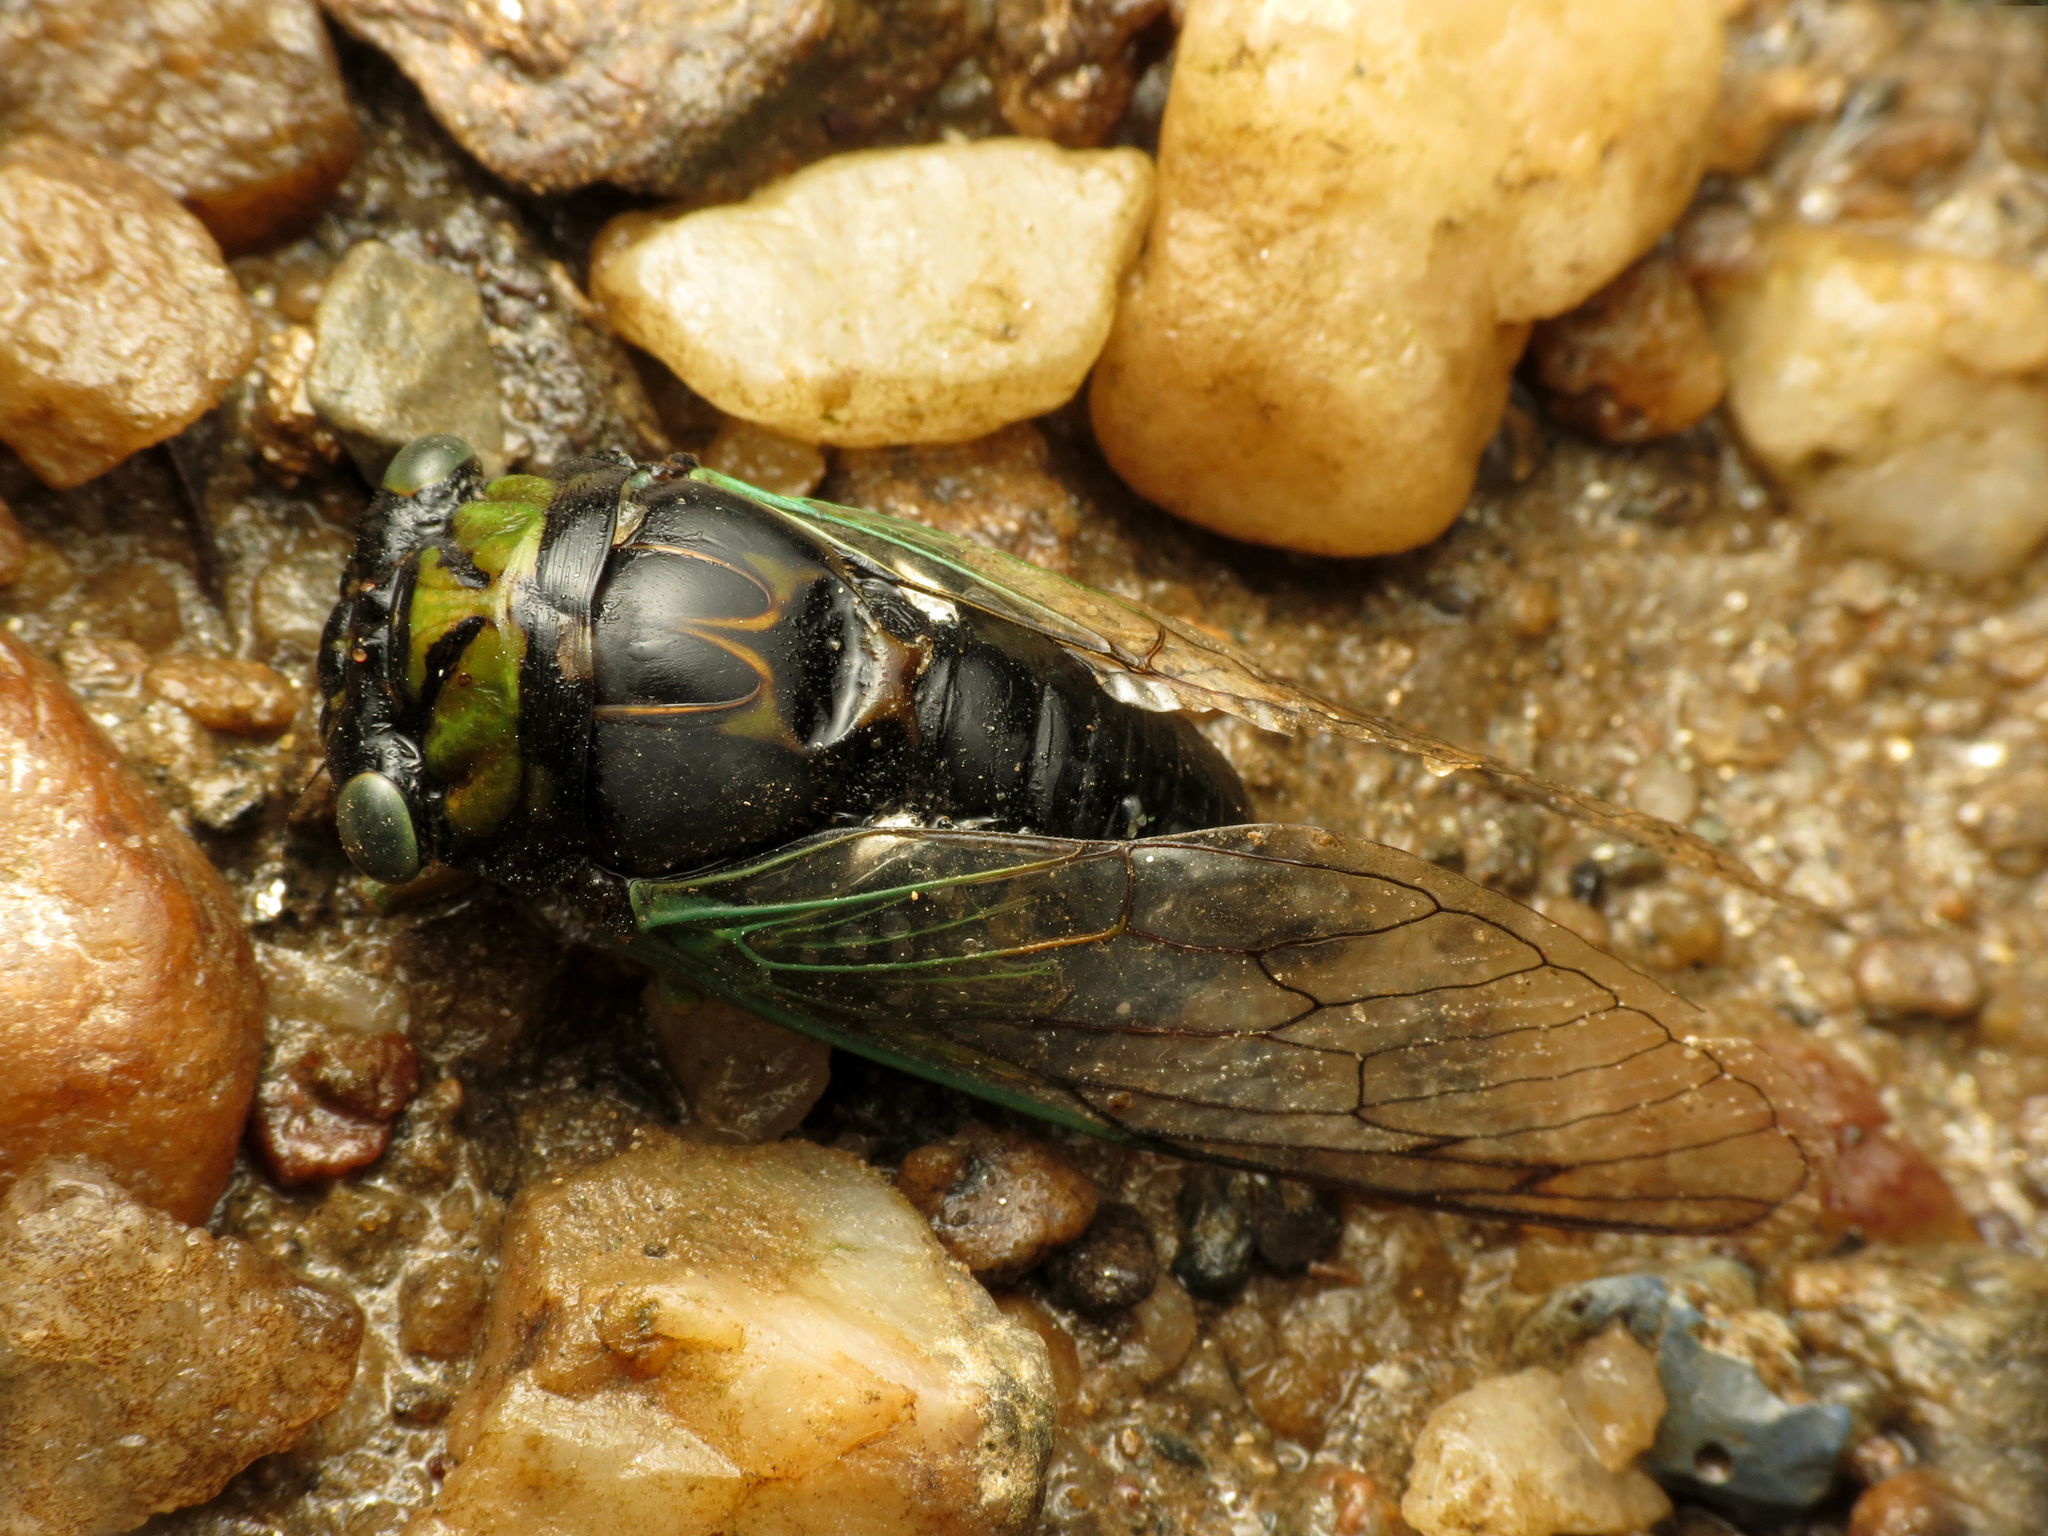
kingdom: Animalia
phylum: Arthropoda
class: Insecta
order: Hemiptera
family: Cicadidae
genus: Neotibicen
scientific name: Neotibicen tibicen
